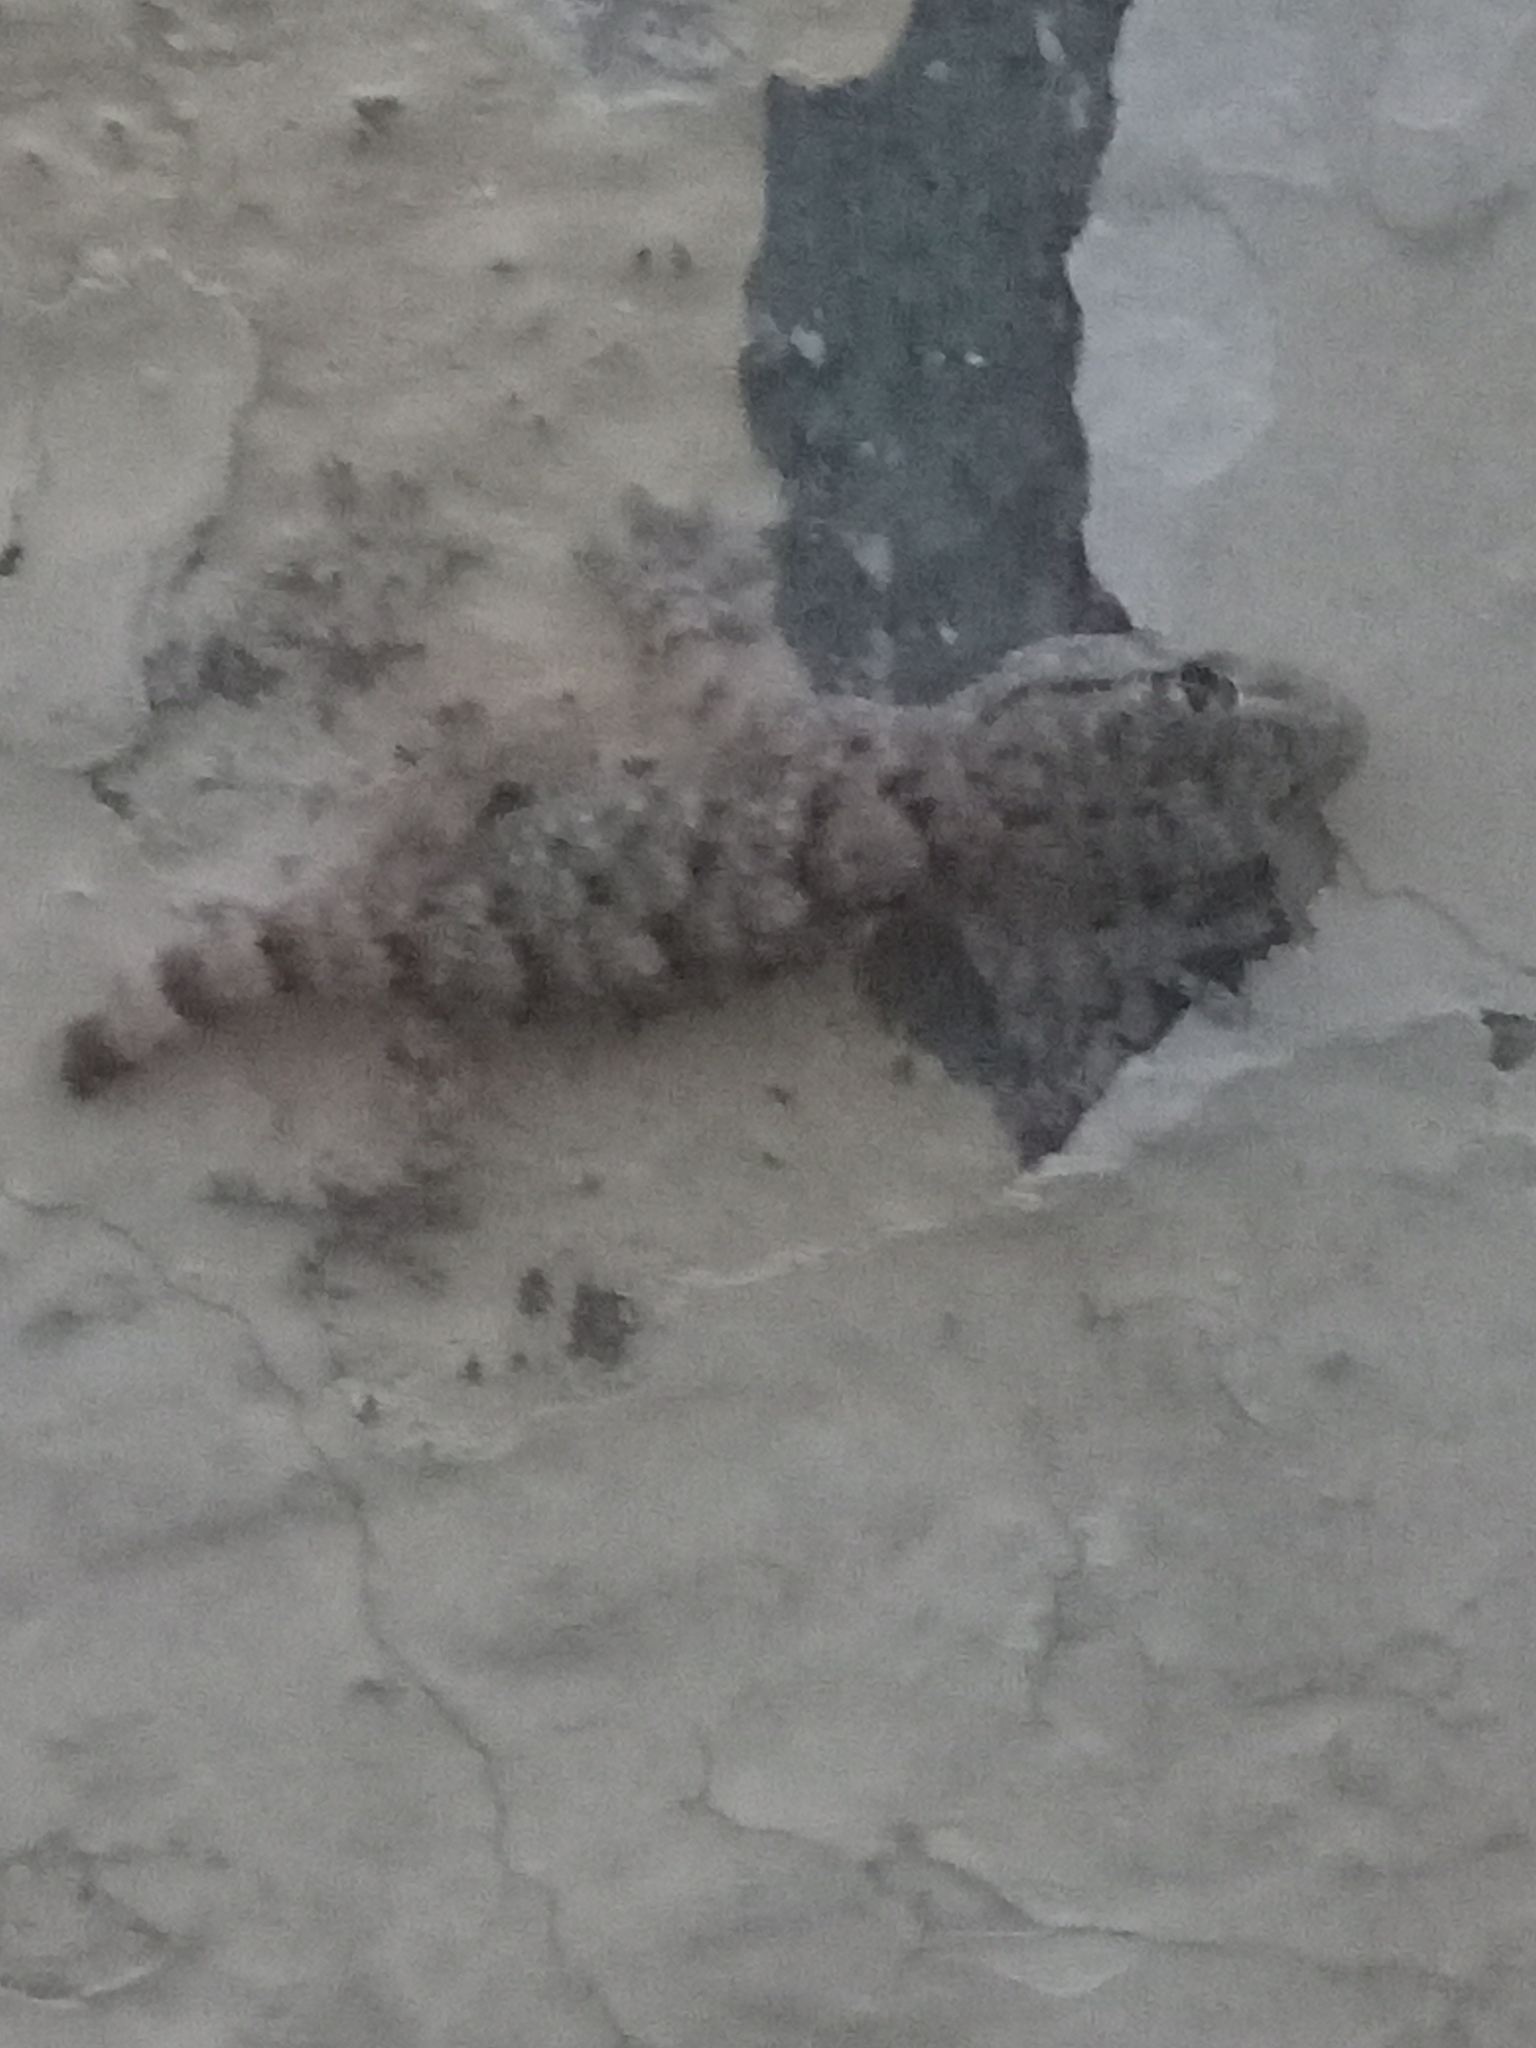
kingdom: Animalia
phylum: Chordata
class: Squamata
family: Phyllodactylidae
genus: Tarentola
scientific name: Tarentola mauritanica
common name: Moorish gecko
